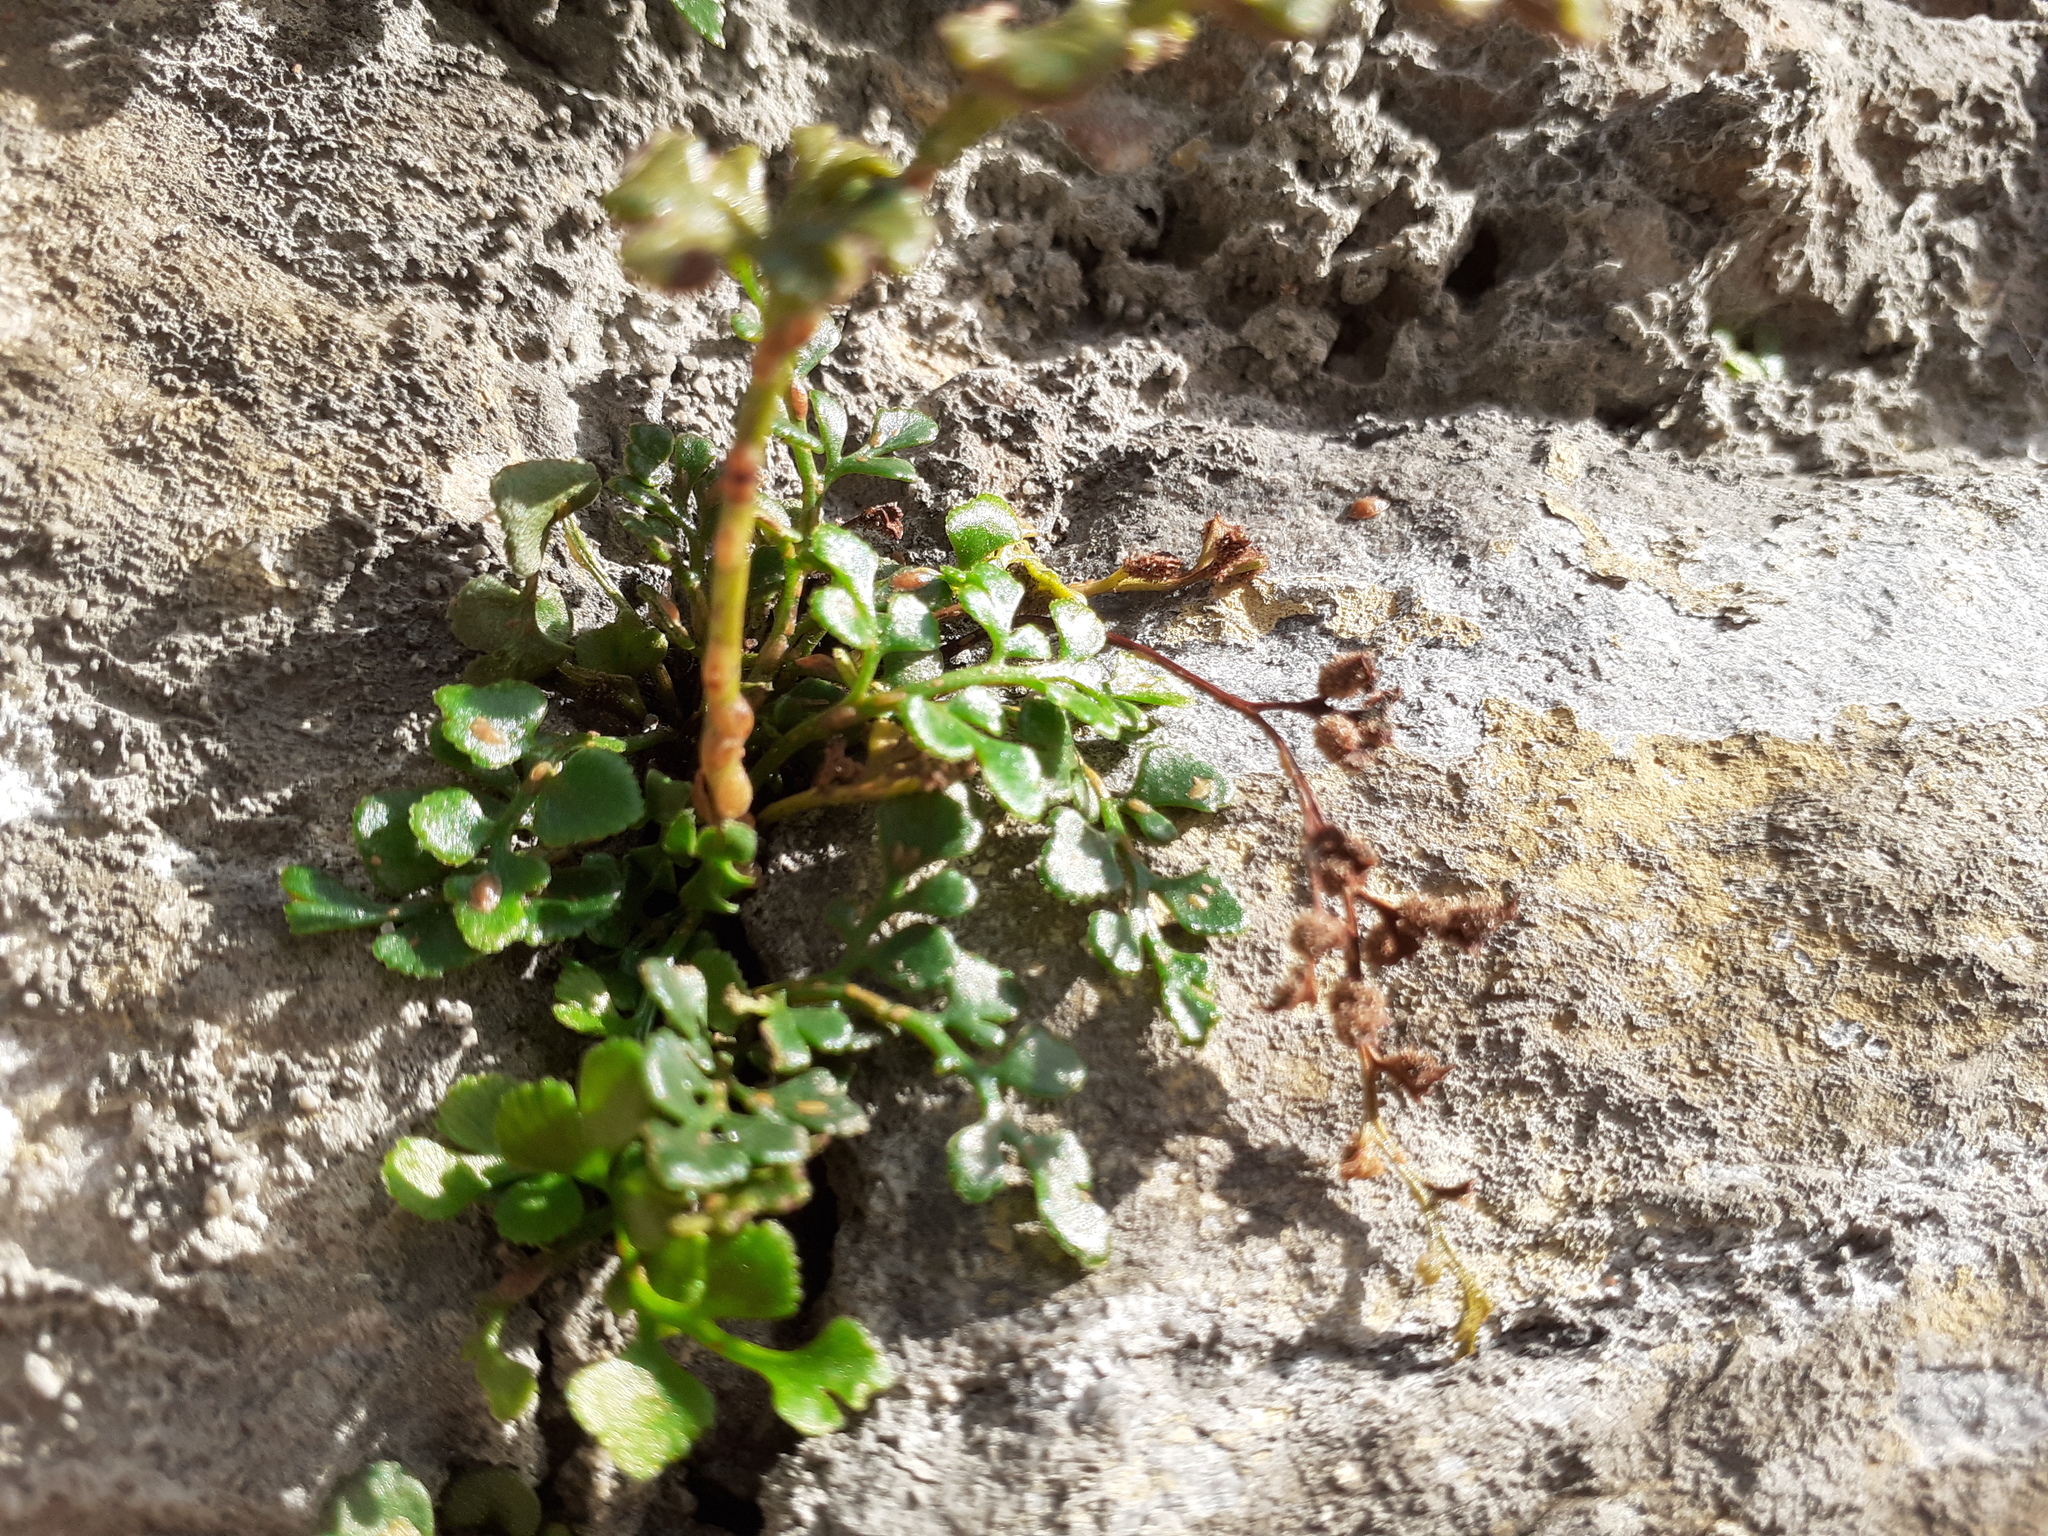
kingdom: Plantae
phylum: Tracheophyta
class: Polypodiopsida
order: Polypodiales
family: Aspleniaceae
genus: Asplenium
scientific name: Asplenium ruta-muraria
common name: Wall-rue
